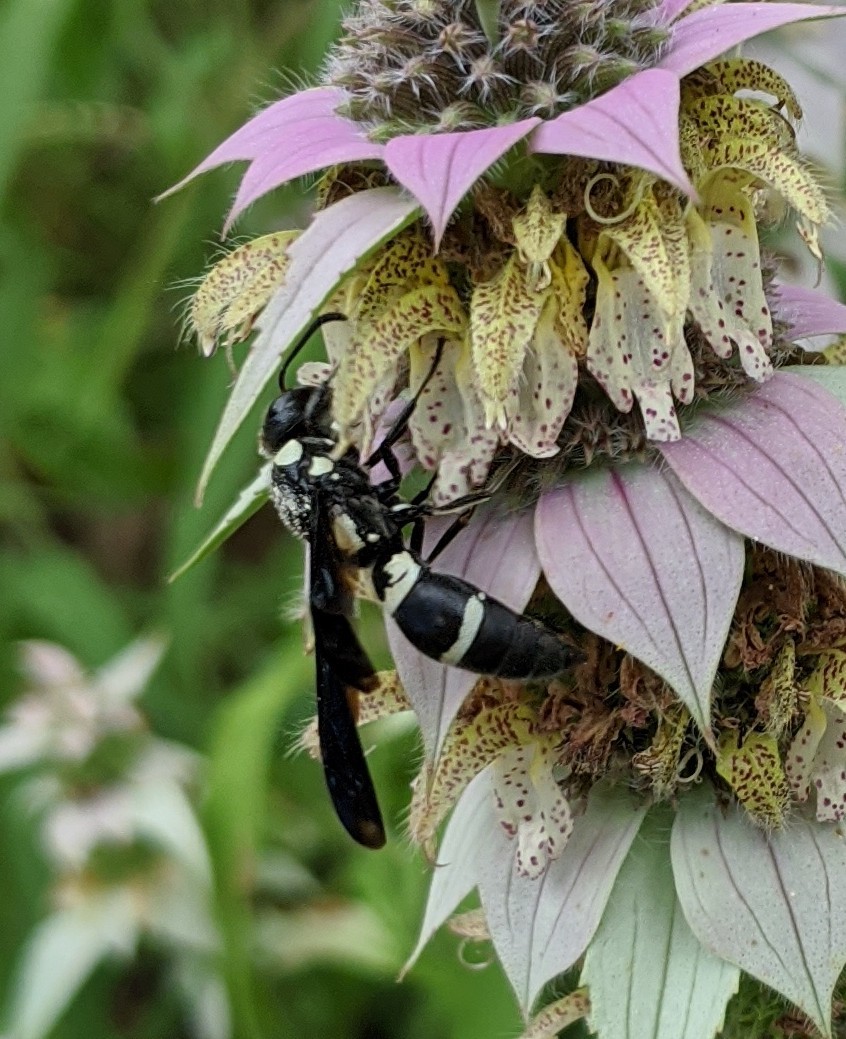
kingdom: Animalia
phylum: Arthropoda
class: Insecta
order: Hymenoptera
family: Eumenidae
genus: Pseudodynerus
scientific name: Pseudodynerus quadrisectus
